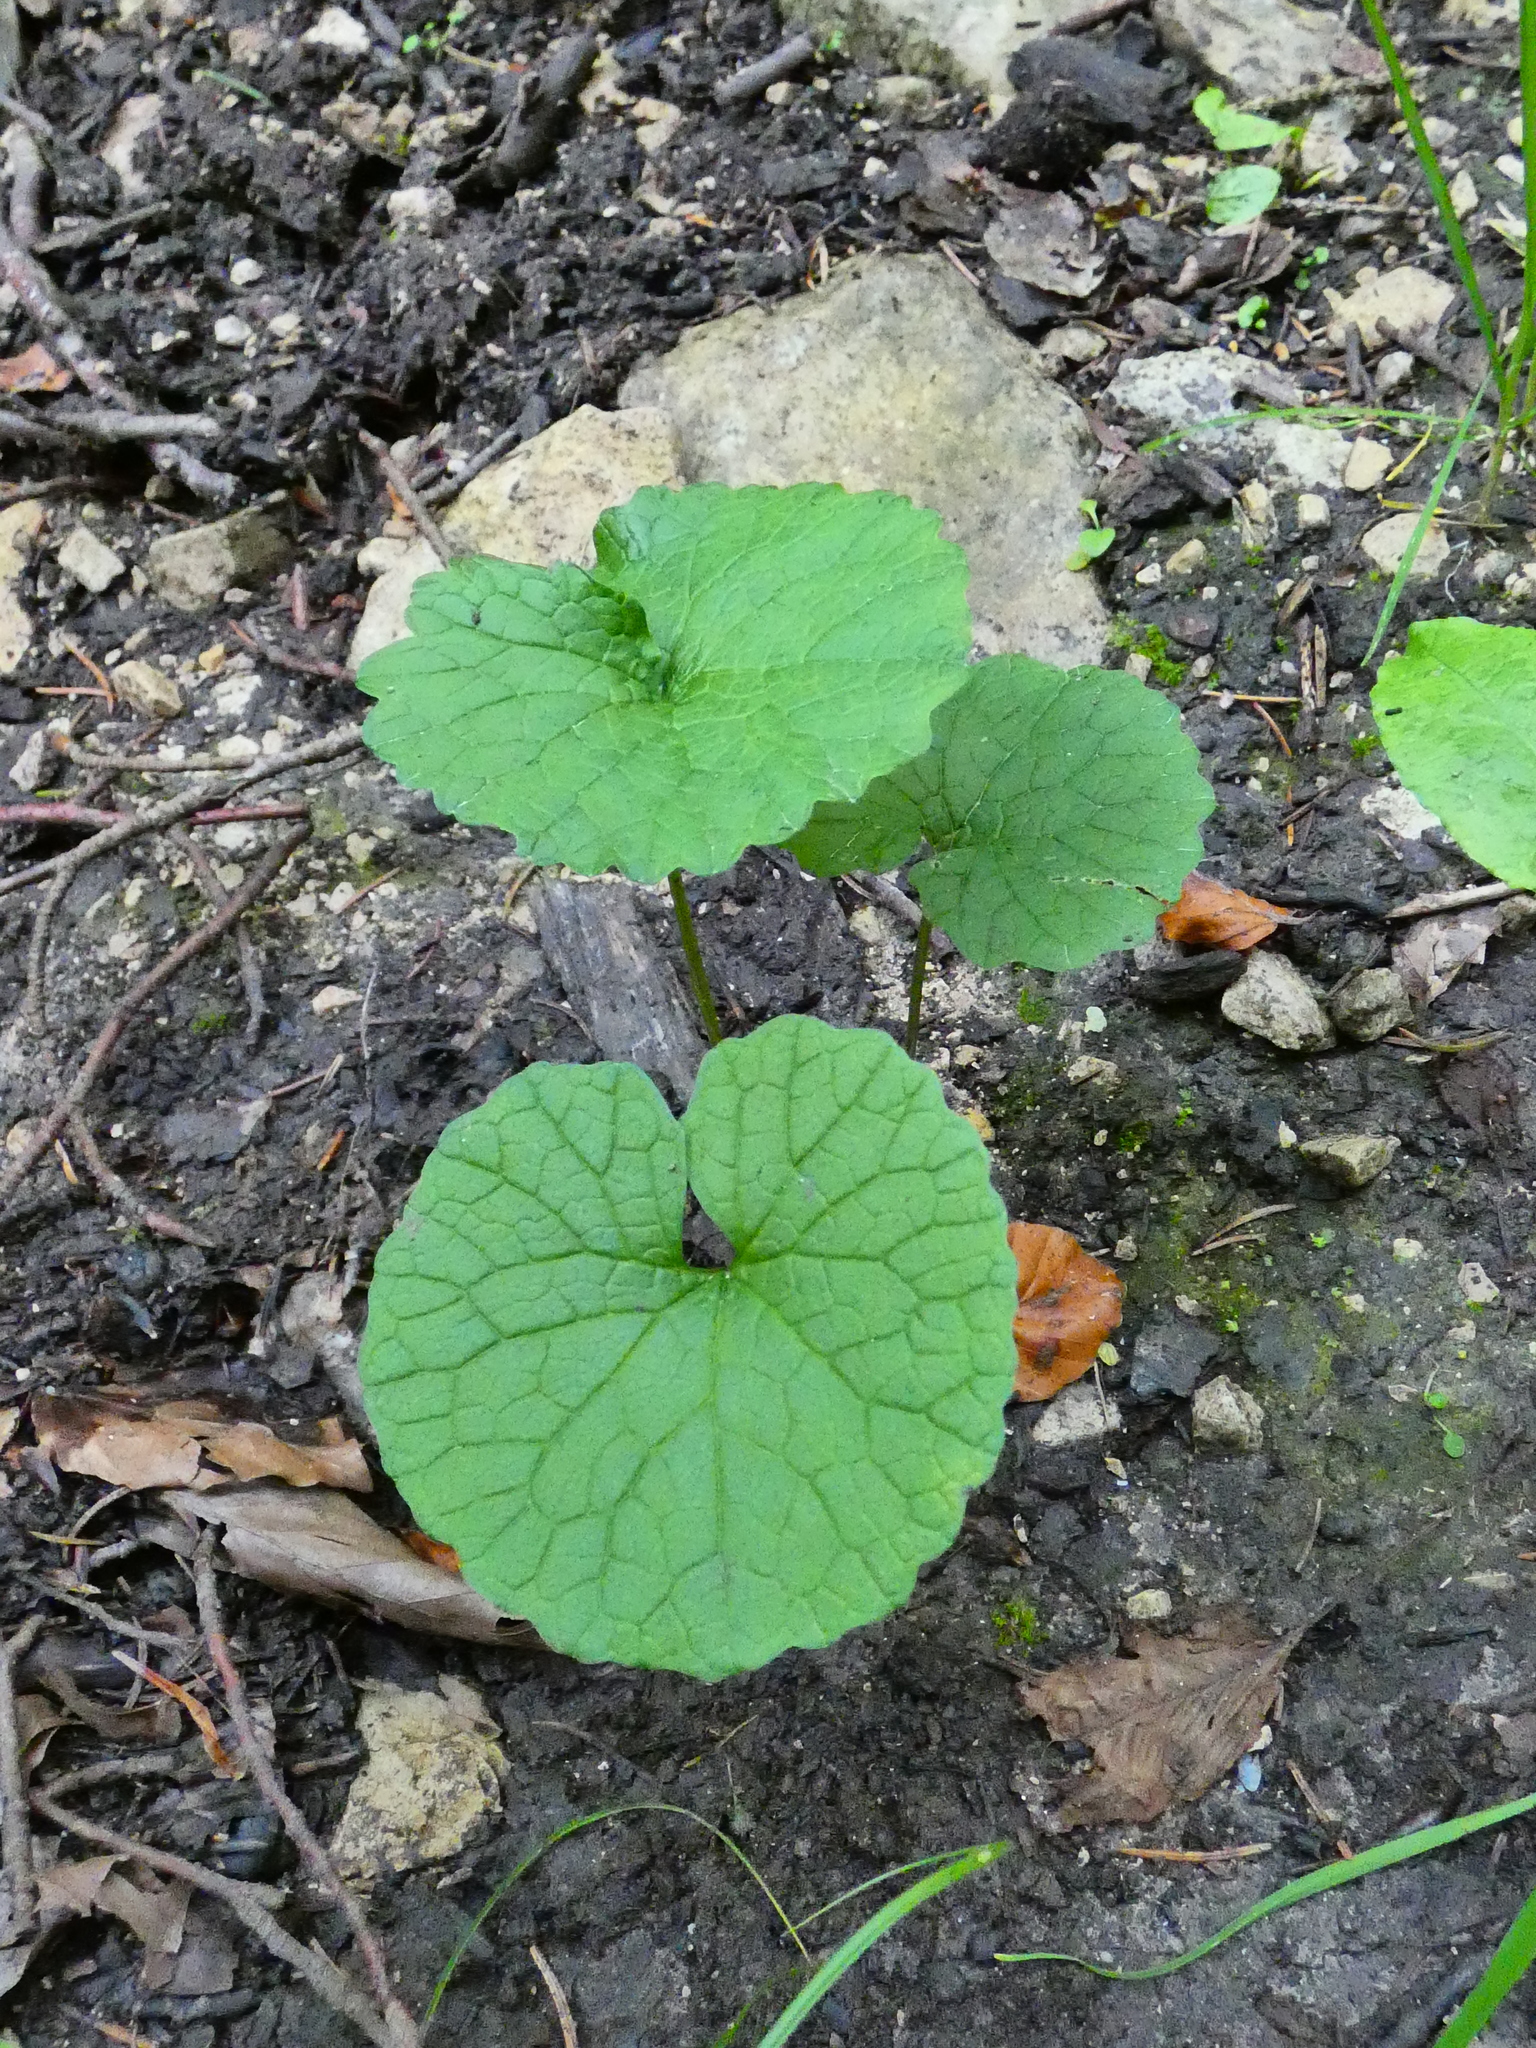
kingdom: Plantae
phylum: Tracheophyta
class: Magnoliopsida
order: Brassicales
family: Brassicaceae
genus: Alliaria
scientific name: Alliaria petiolata
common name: Garlic mustard
